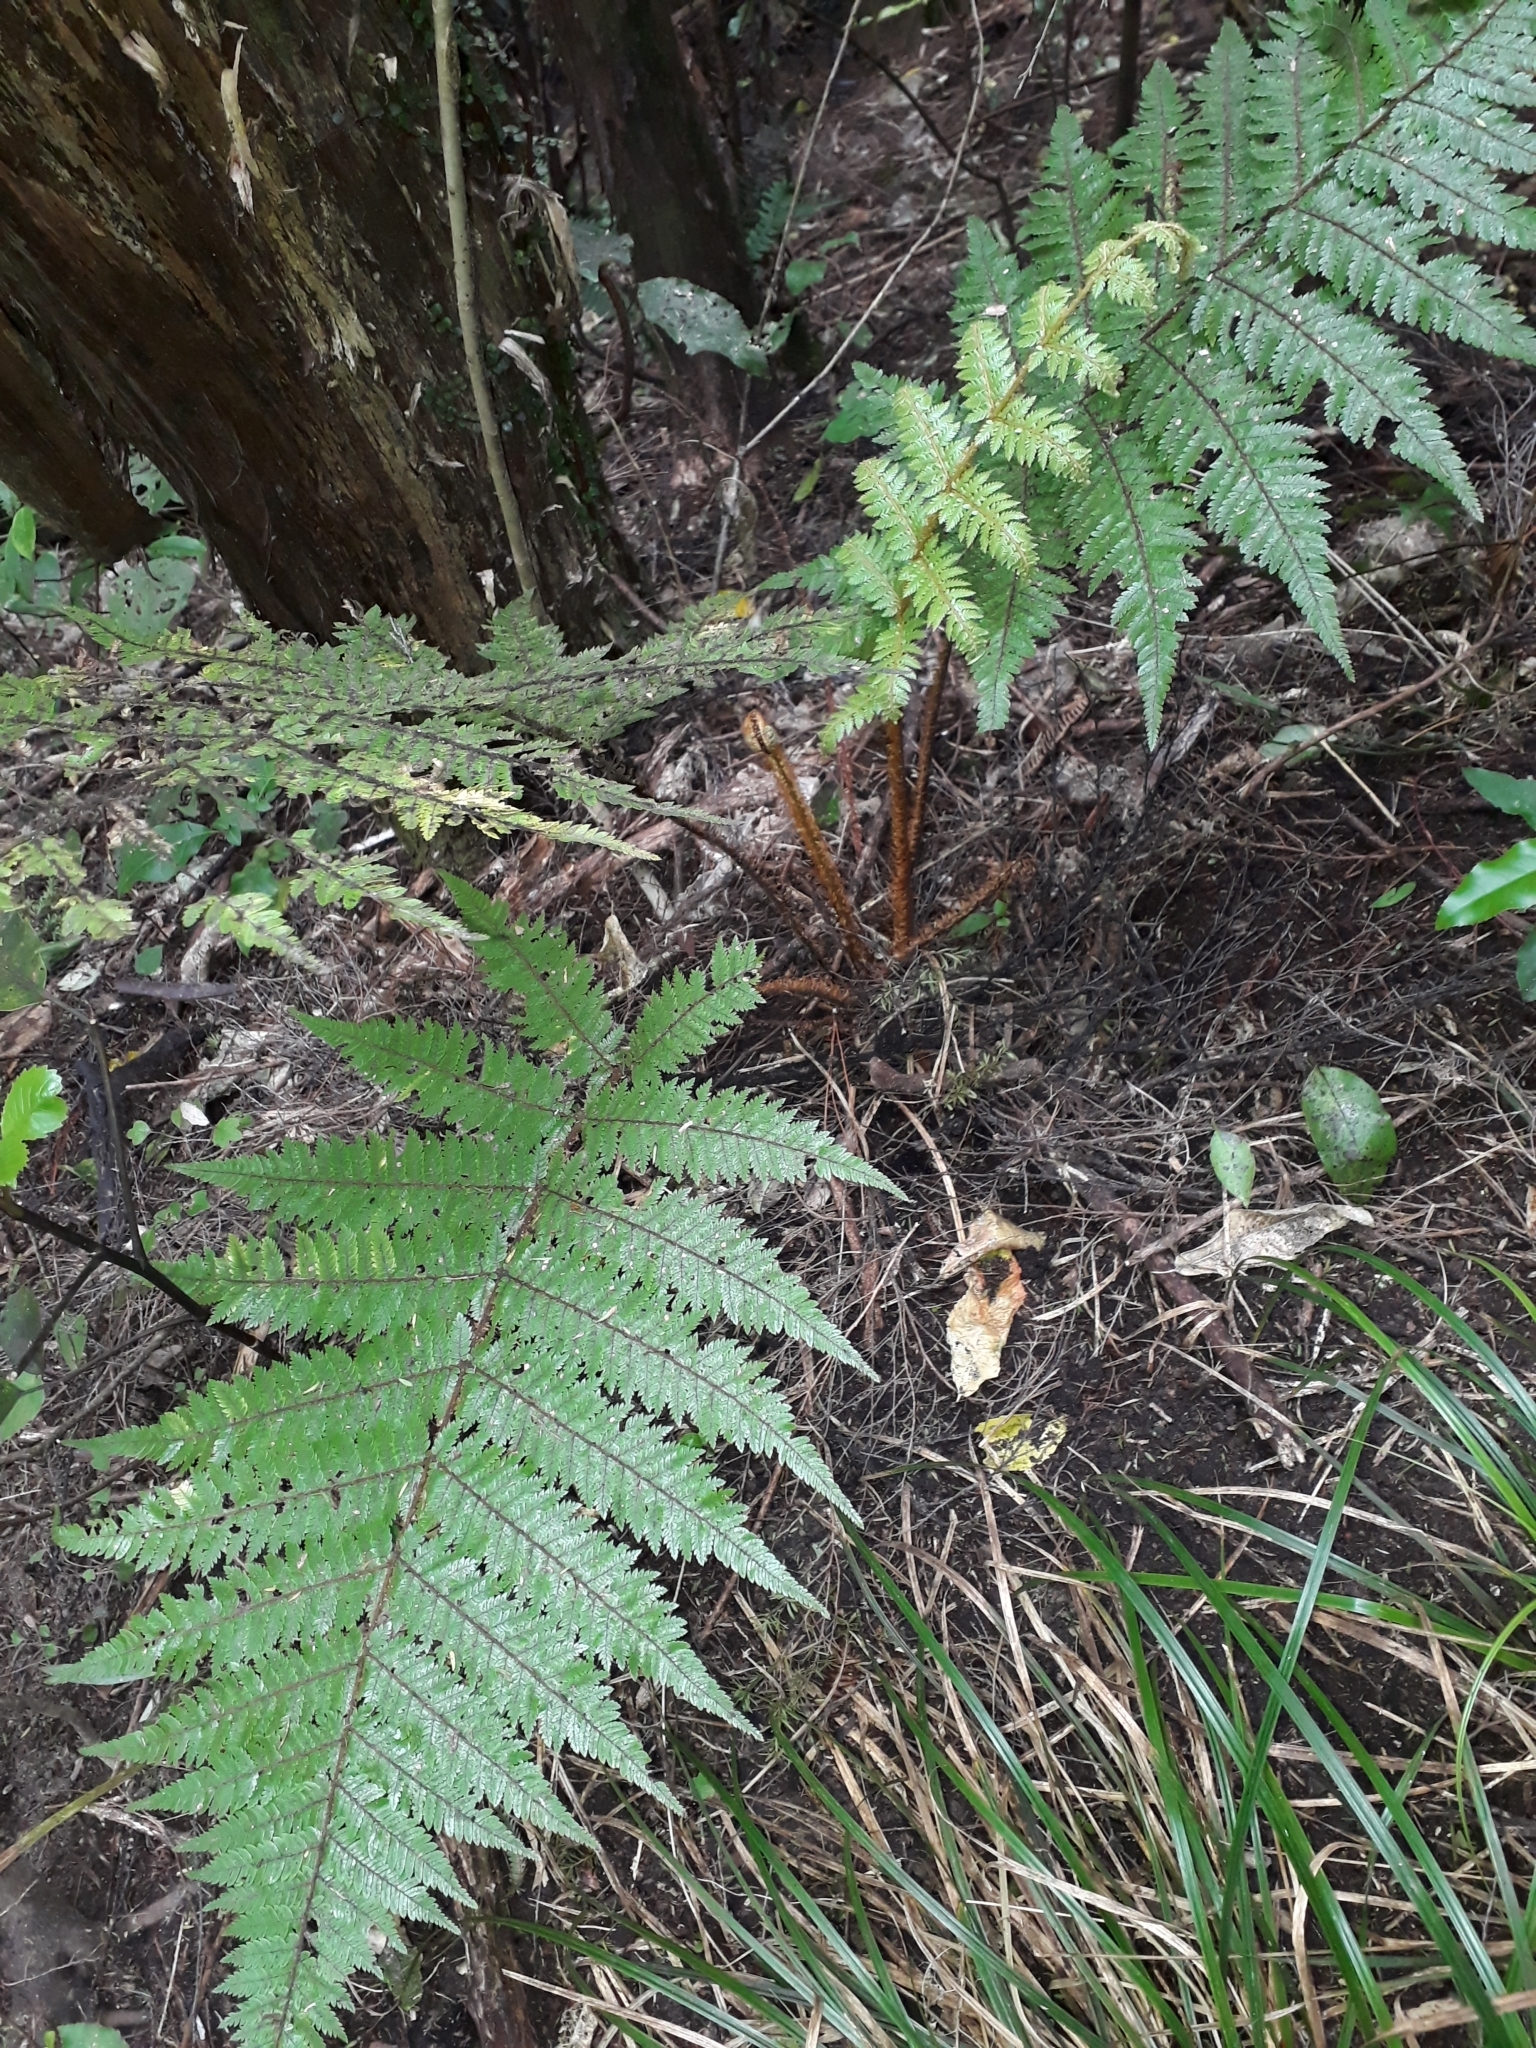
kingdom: Plantae
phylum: Tracheophyta
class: Polypodiopsida
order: Cyatheales
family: Cyatheaceae
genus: Alsophila
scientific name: Alsophila smithii
